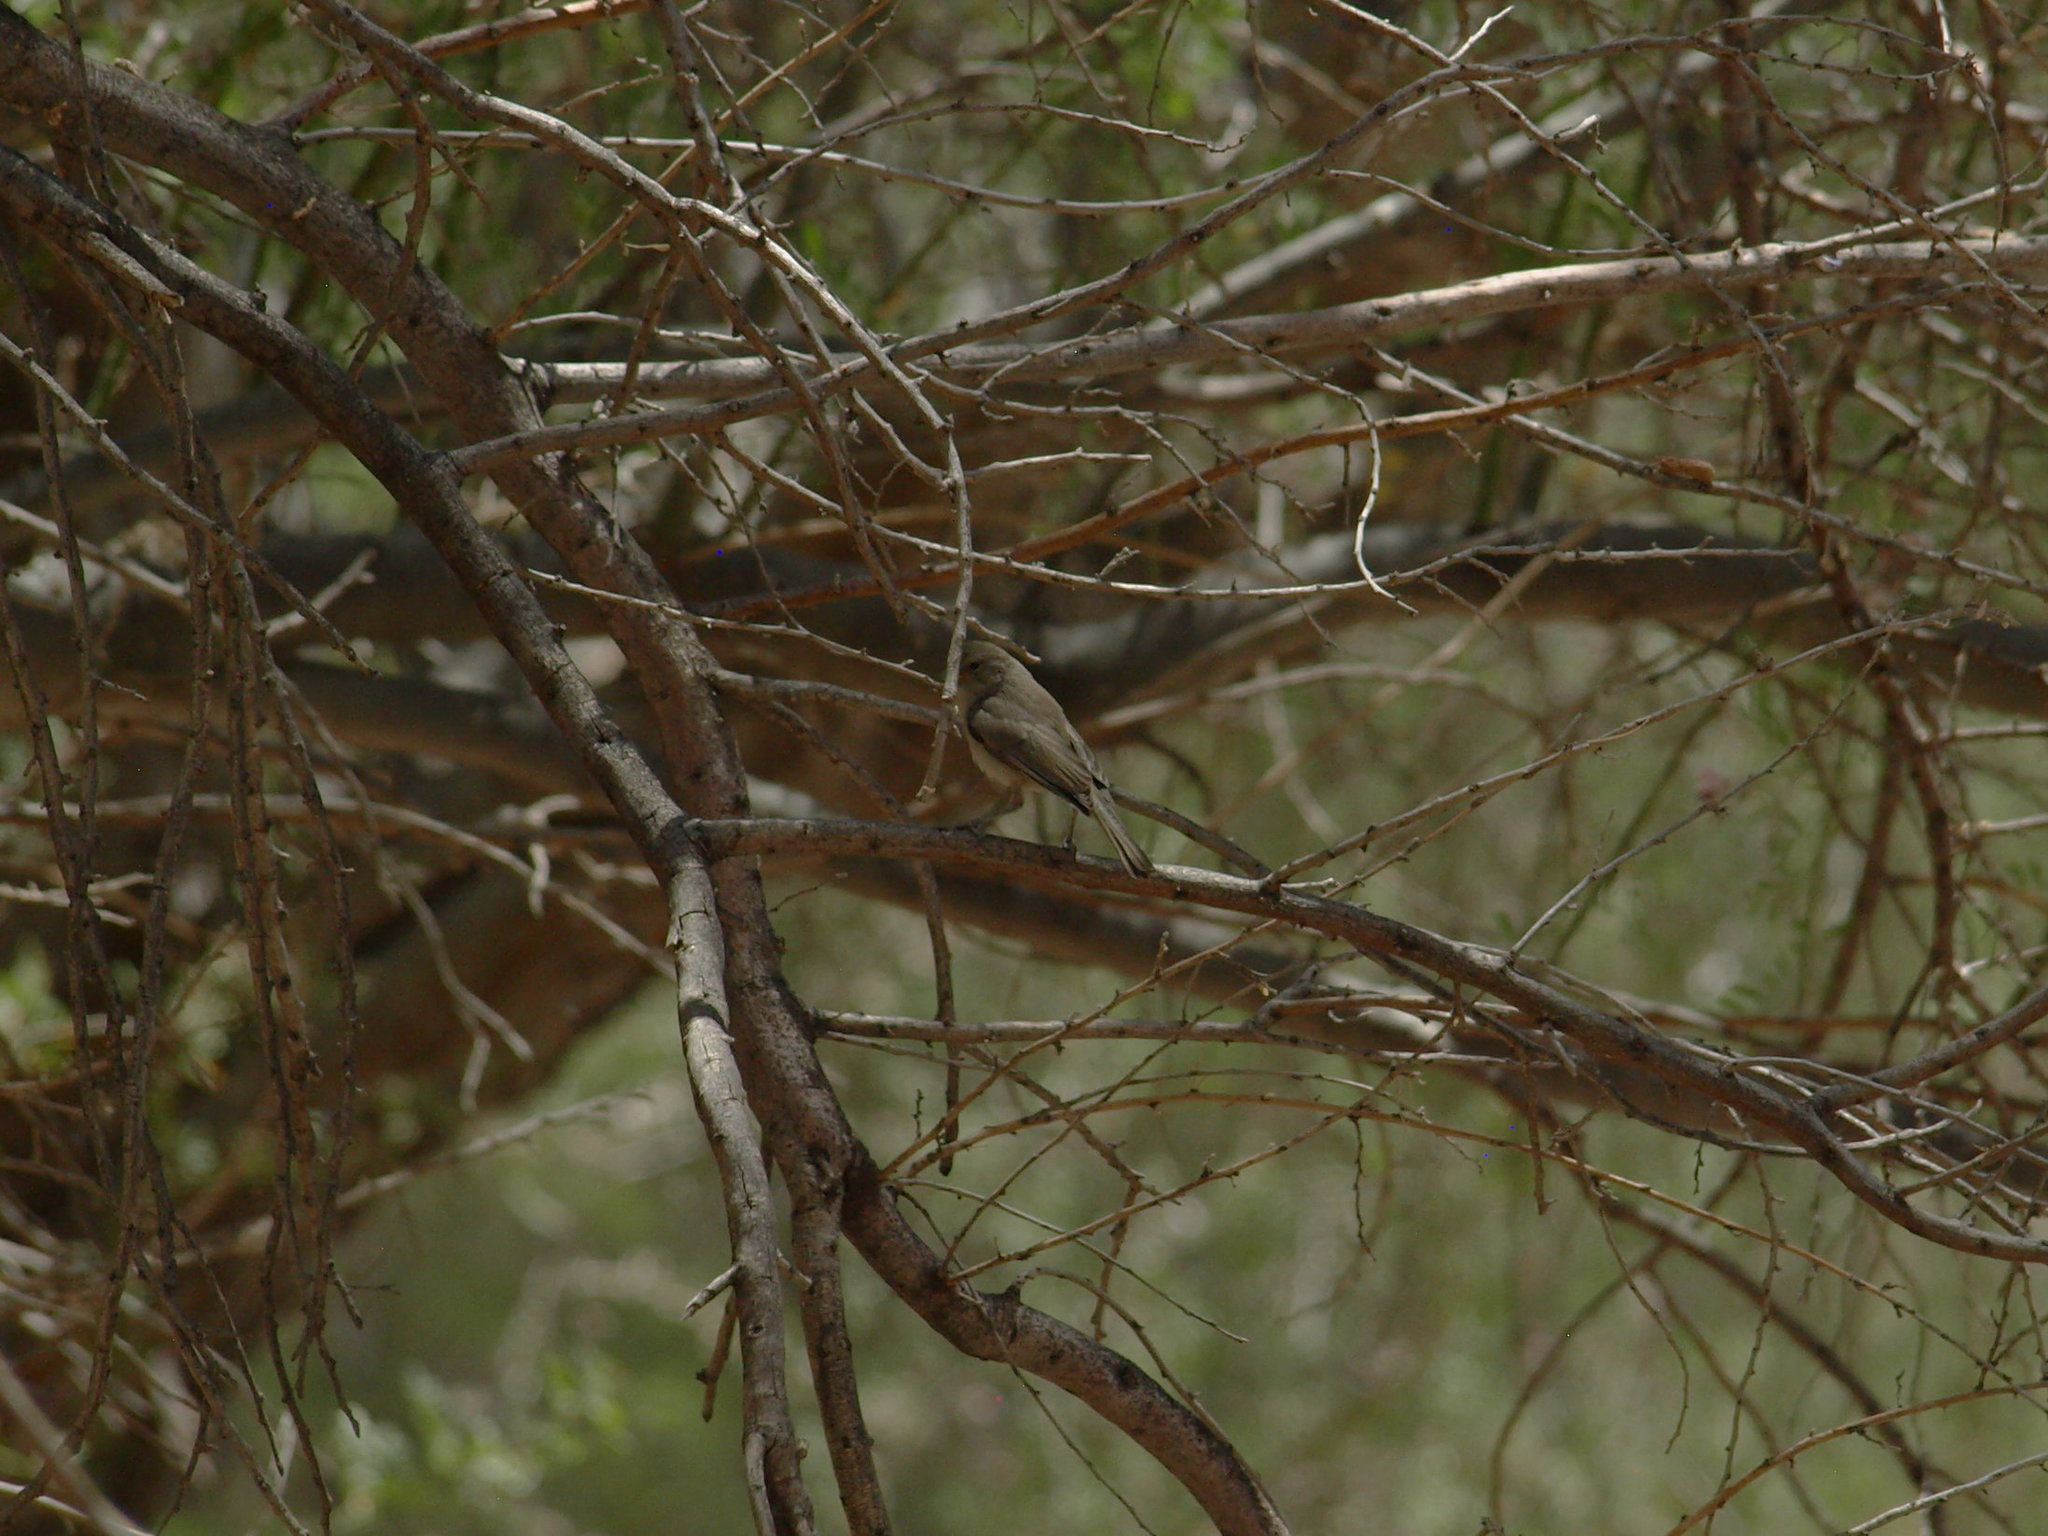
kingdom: Animalia
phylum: Chordata
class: Aves
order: Passeriformes
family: Remizidae
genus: Auriparus
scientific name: Auriparus flaviceps
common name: Verdin
